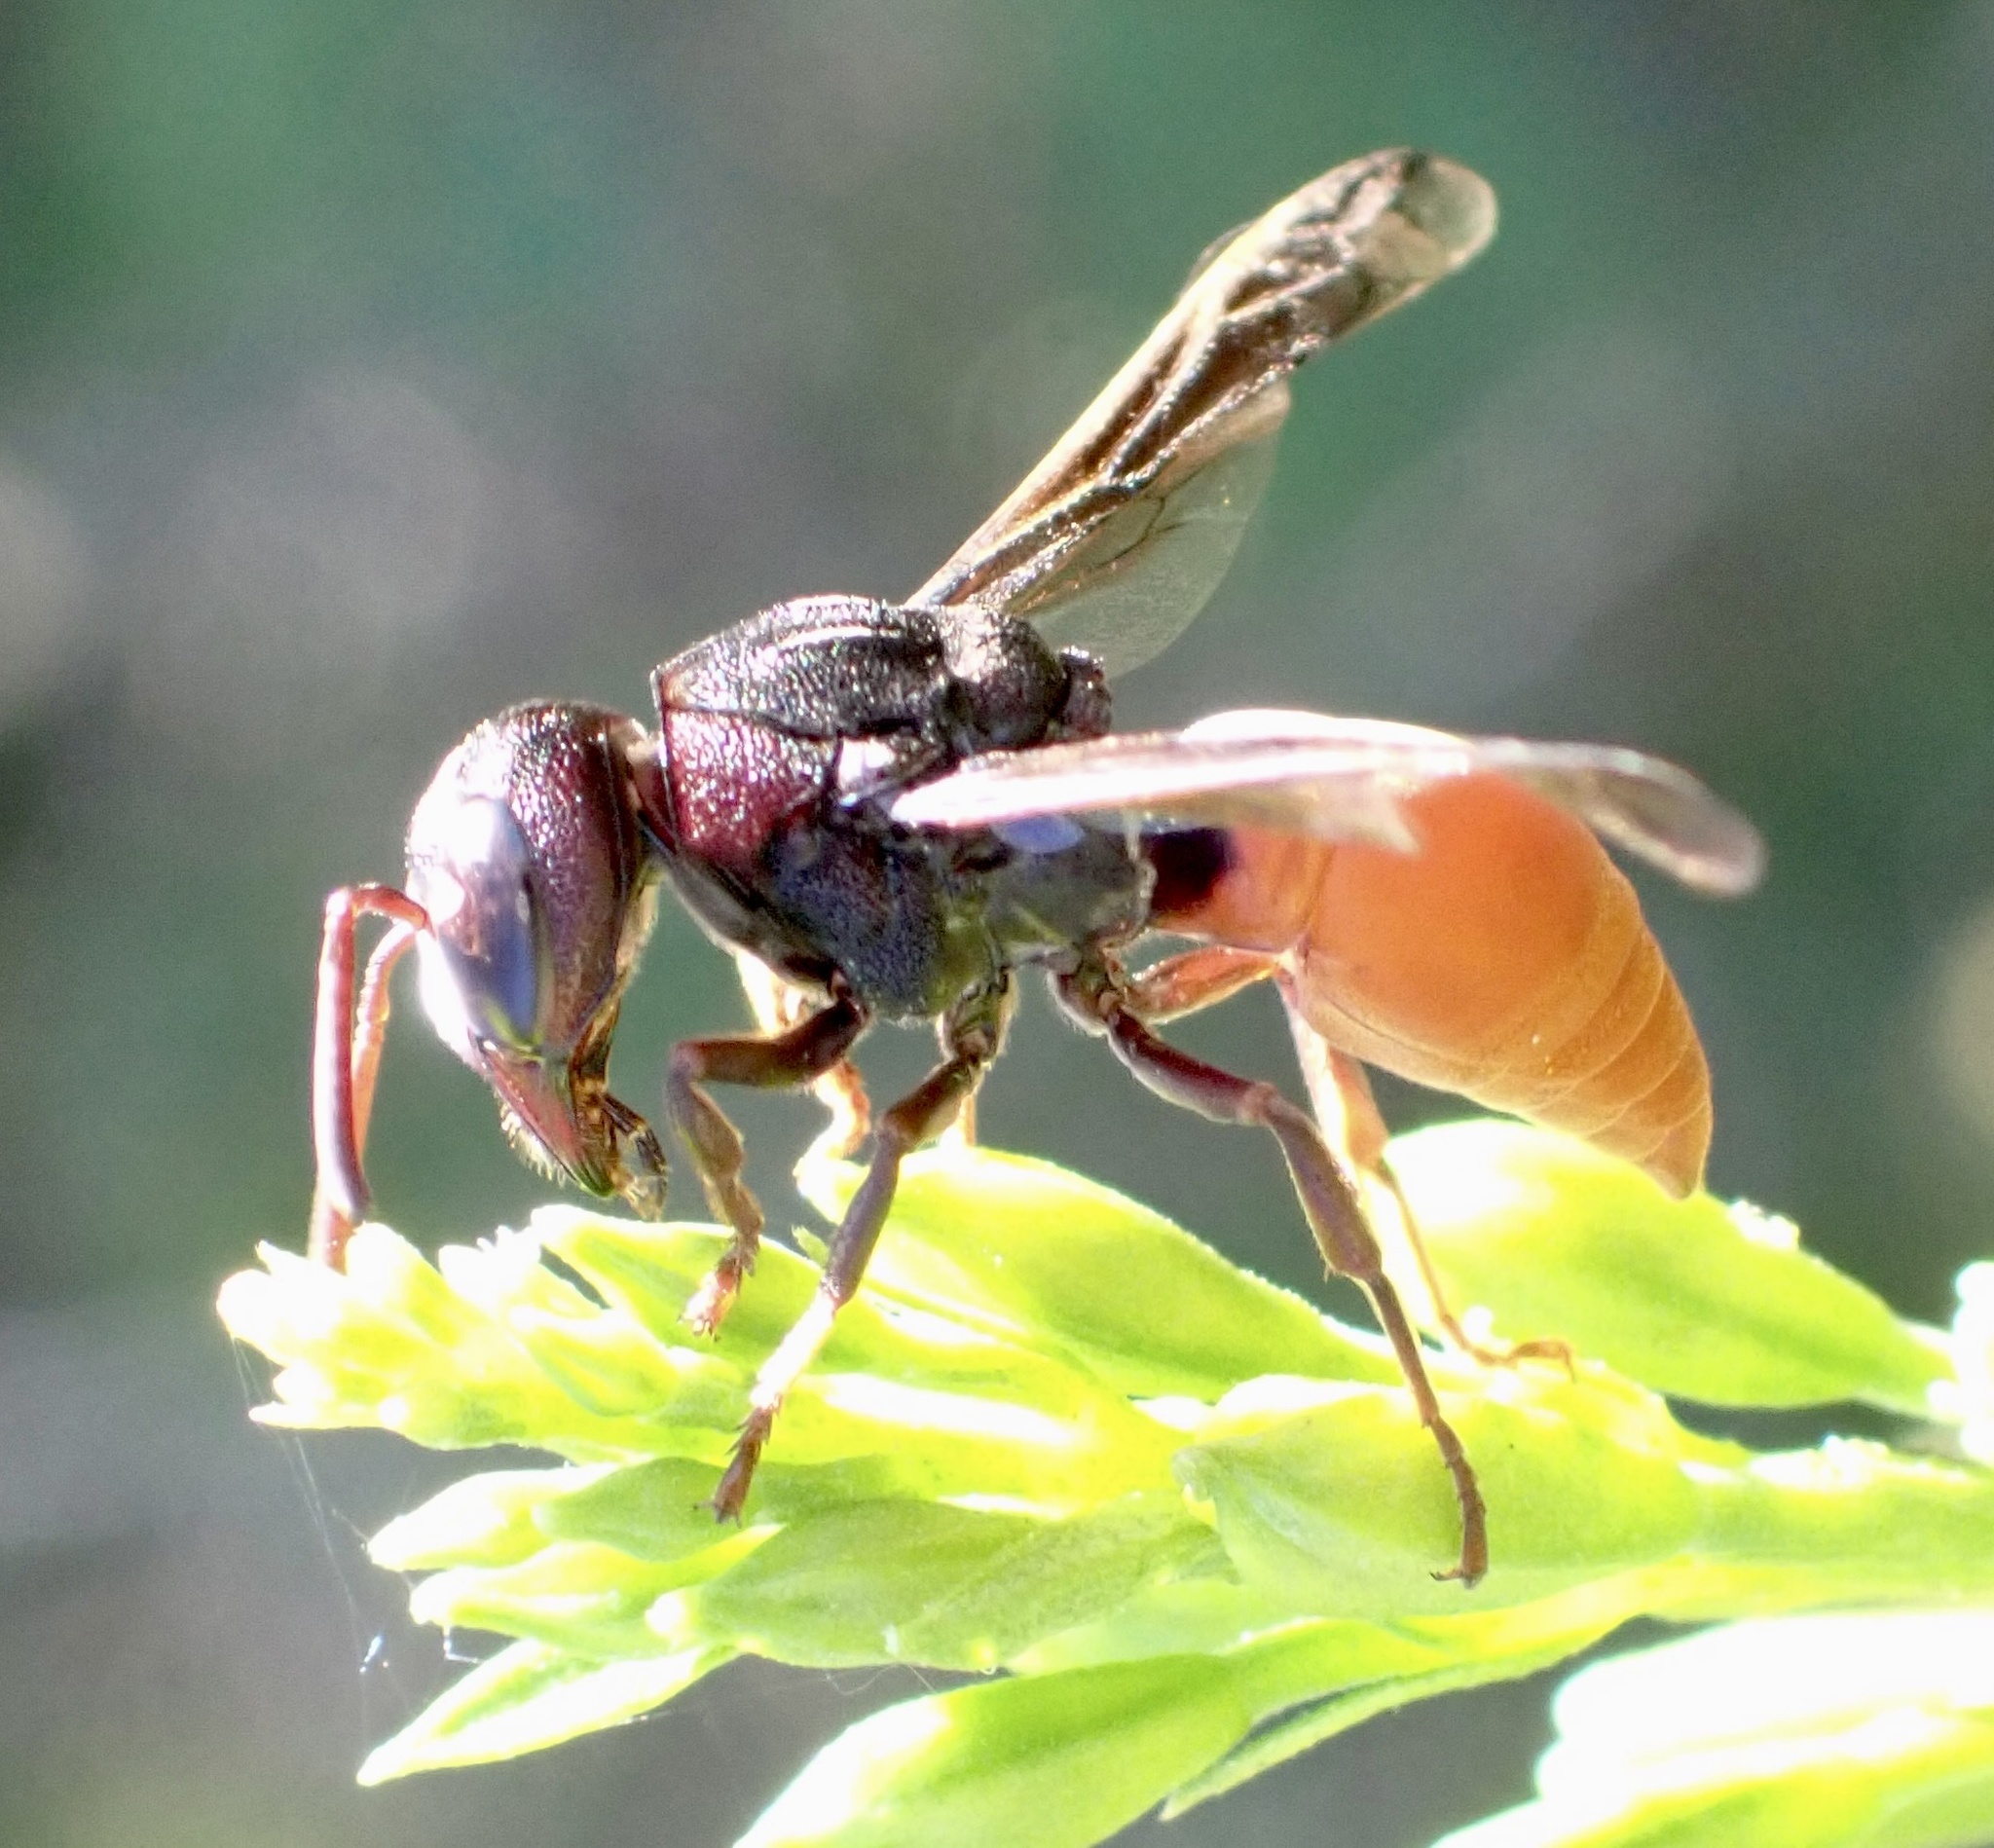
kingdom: Animalia
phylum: Arthropoda
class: Insecta
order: Hymenoptera
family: Eumenidae
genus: Tricarinodynerus
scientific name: Tricarinodynerus
